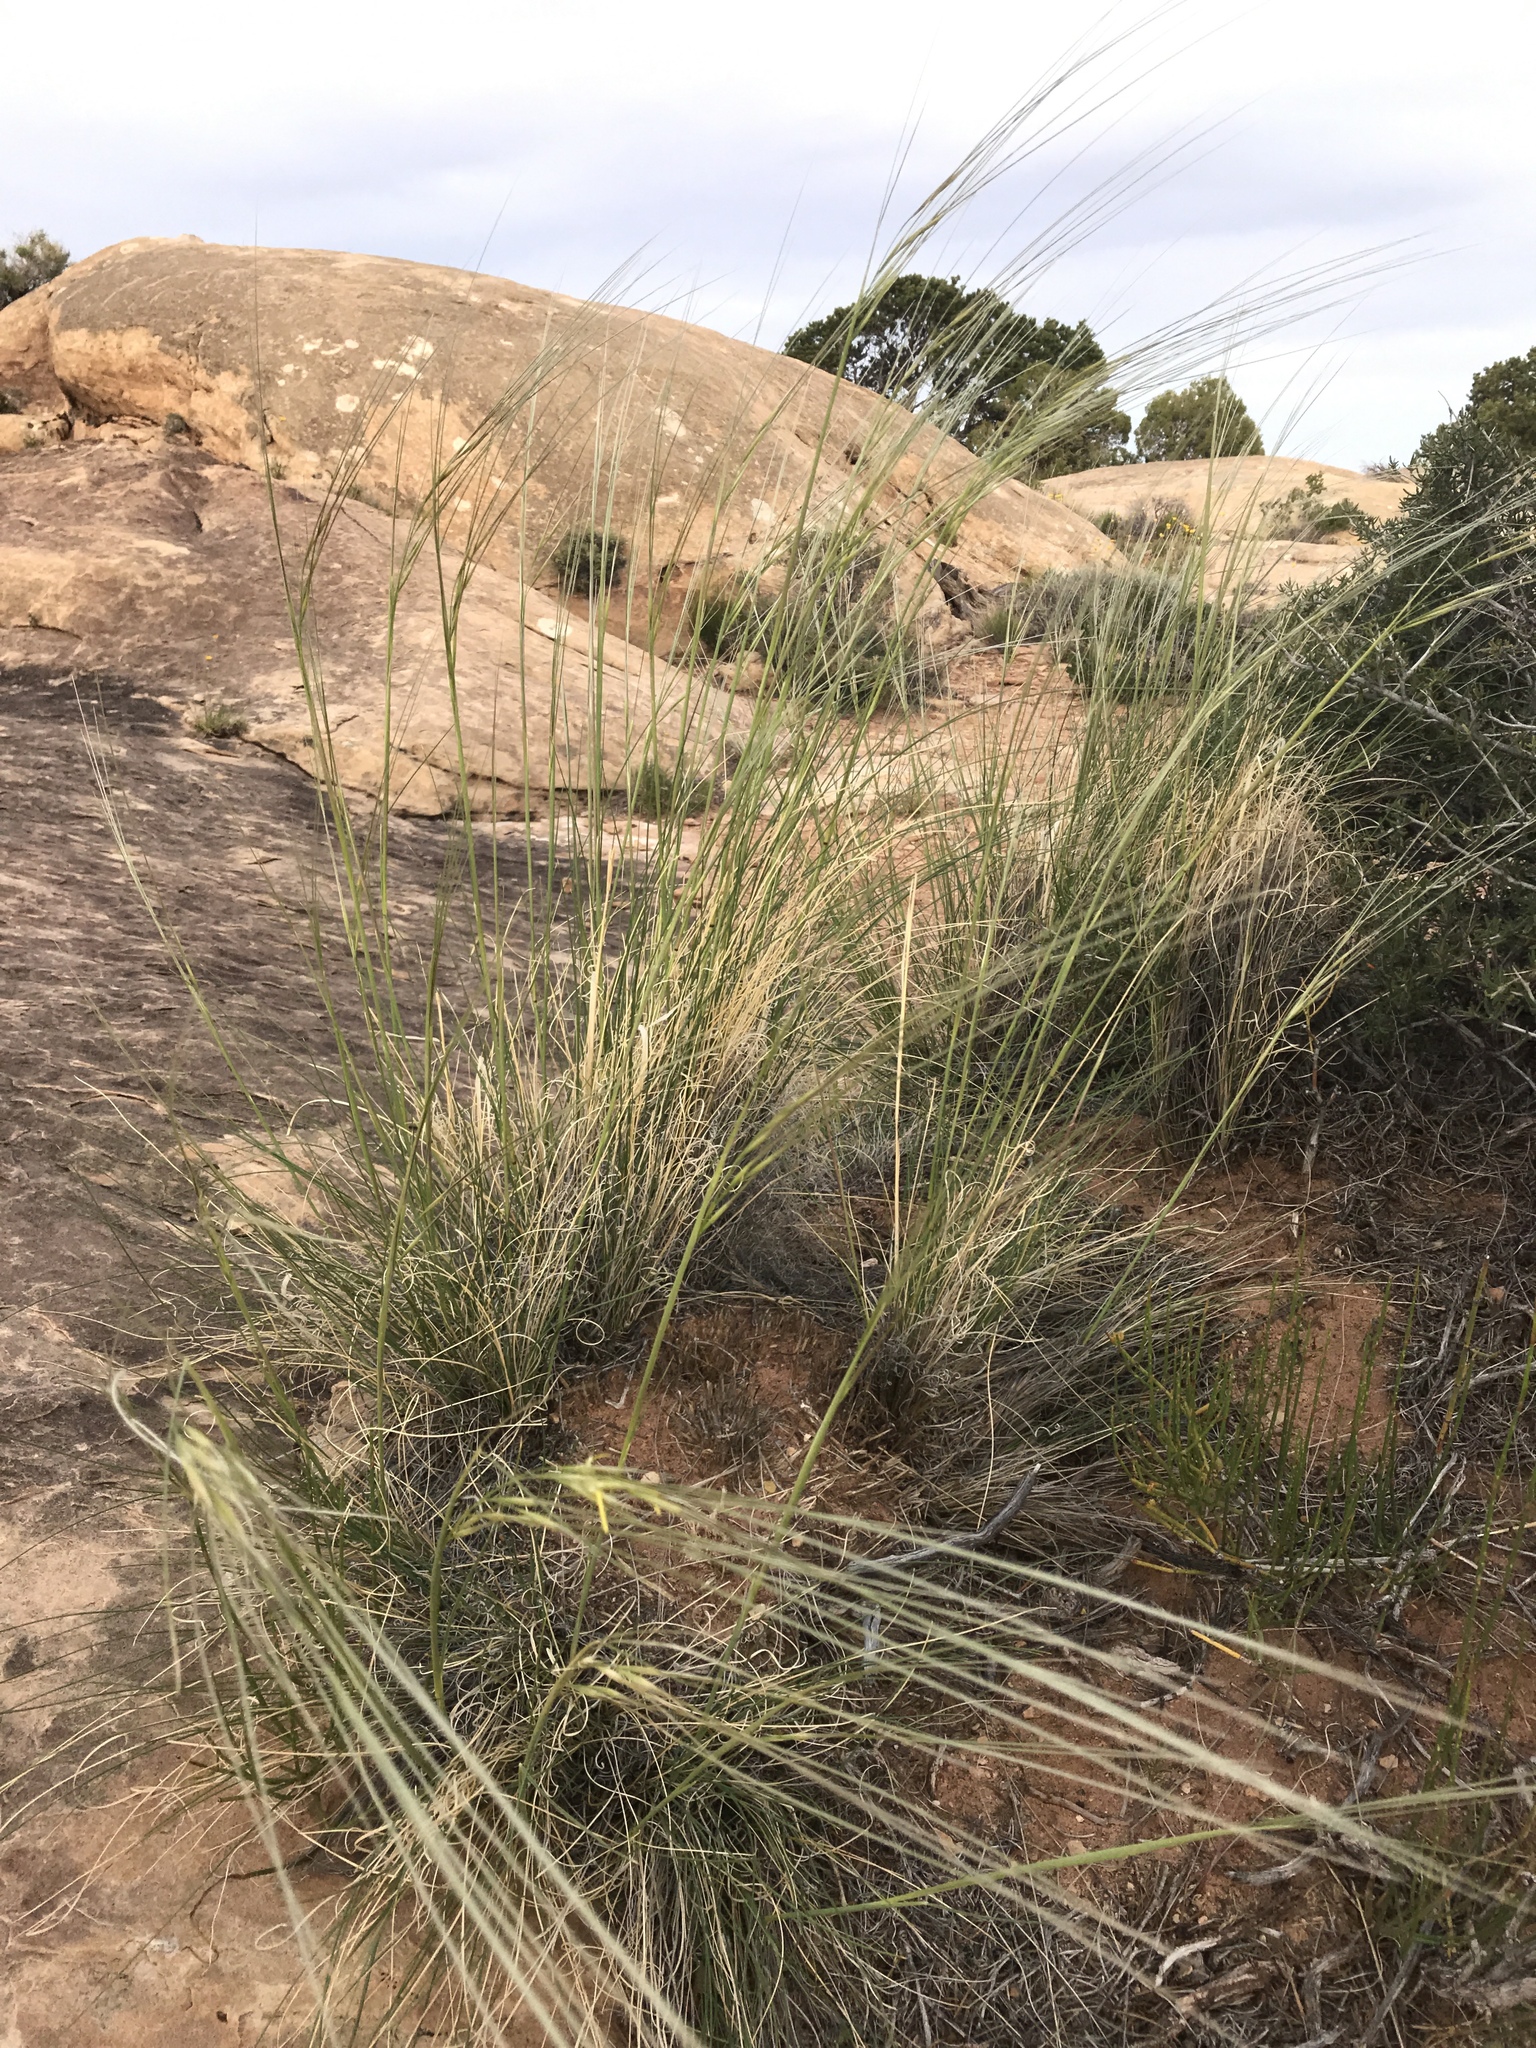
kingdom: Plantae
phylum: Tracheophyta
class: Liliopsida
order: Poales
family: Poaceae
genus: Hesperostipa
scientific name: Hesperostipa comata
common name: Needle-and-thread grass
